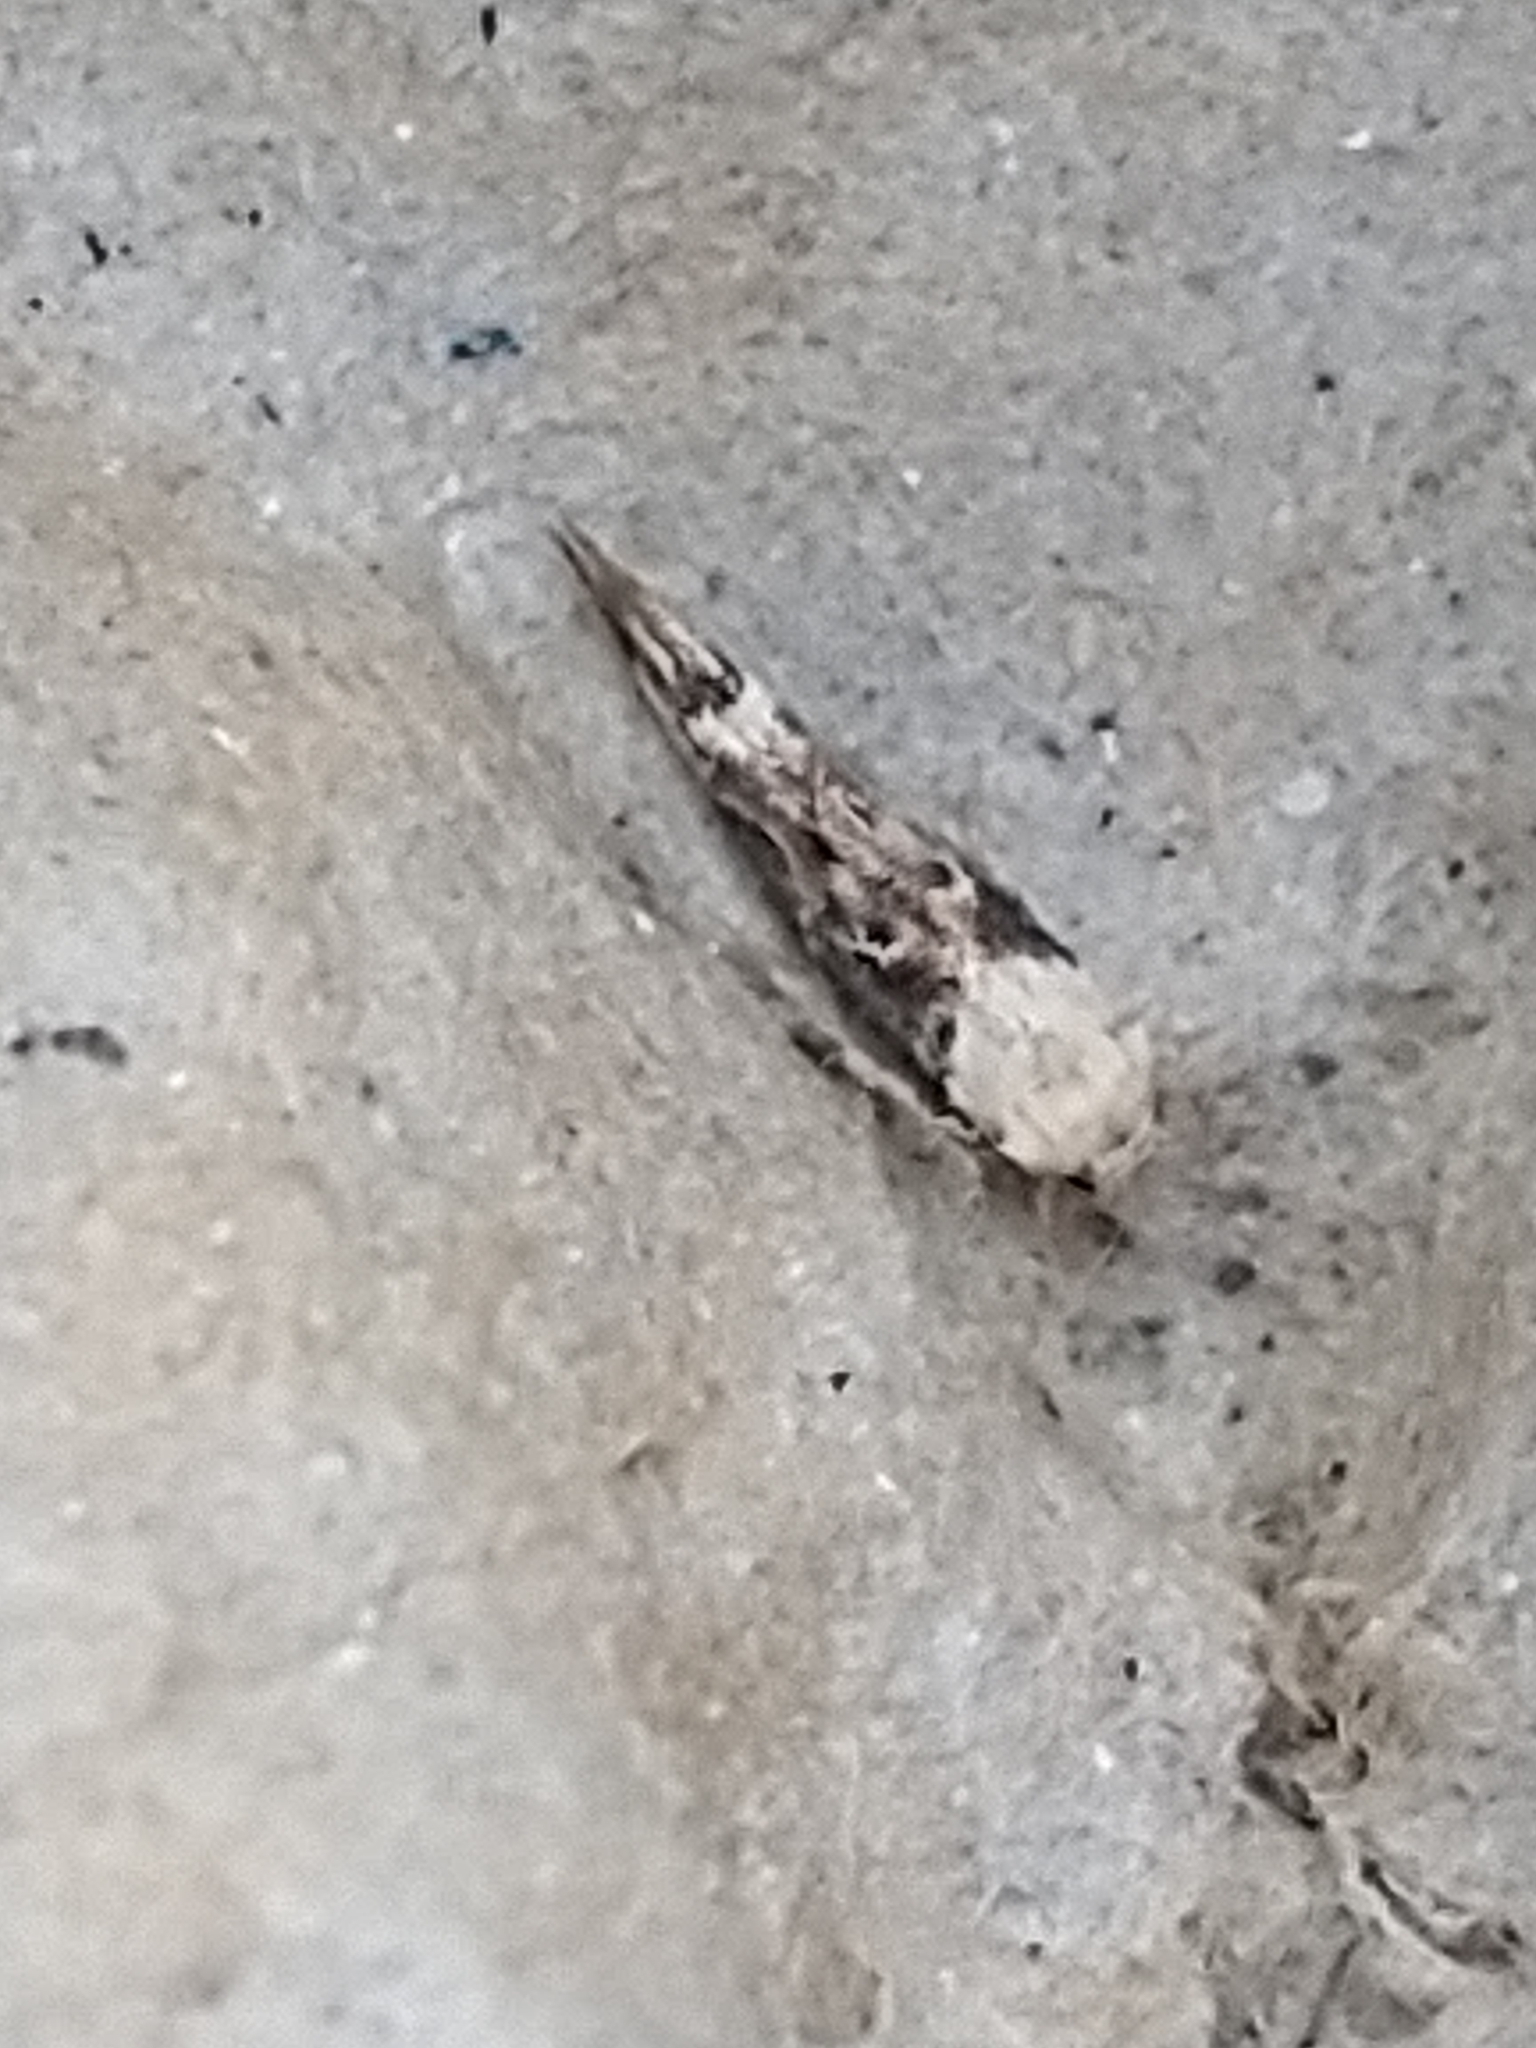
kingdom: Animalia
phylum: Arthropoda
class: Insecta
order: Lepidoptera
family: Momphidae
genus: Mompha
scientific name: Mompha propinquella
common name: Marbled cosmet
